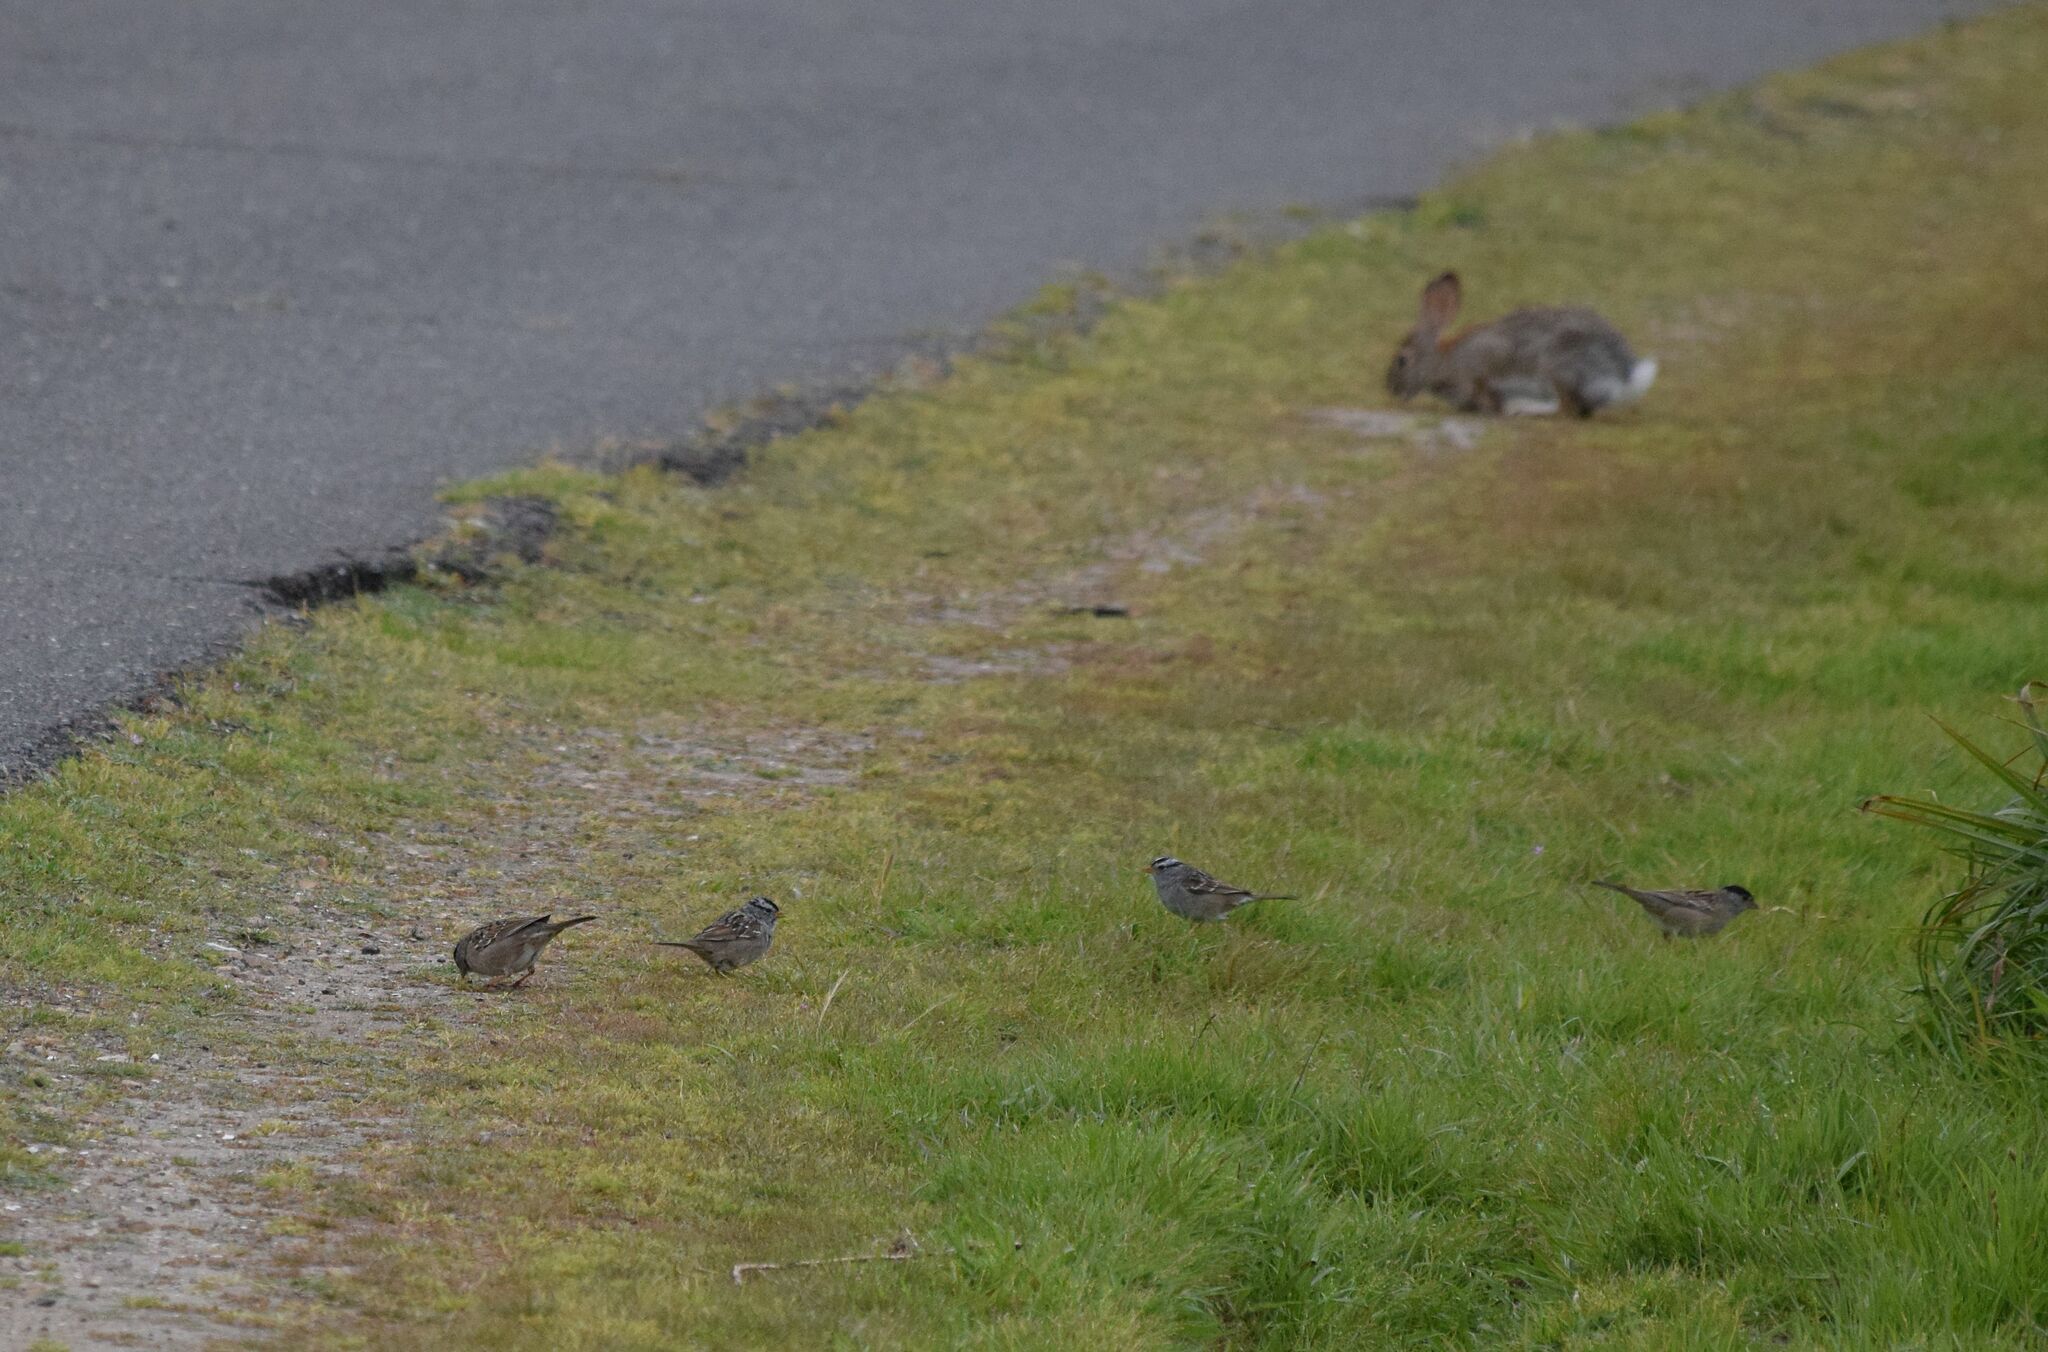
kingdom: Animalia
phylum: Chordata
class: Aves
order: Passeriformes
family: Passerellidae
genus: Zonotrichia
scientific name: Zonotrichia leucophrys
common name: White-crowned sparrow
